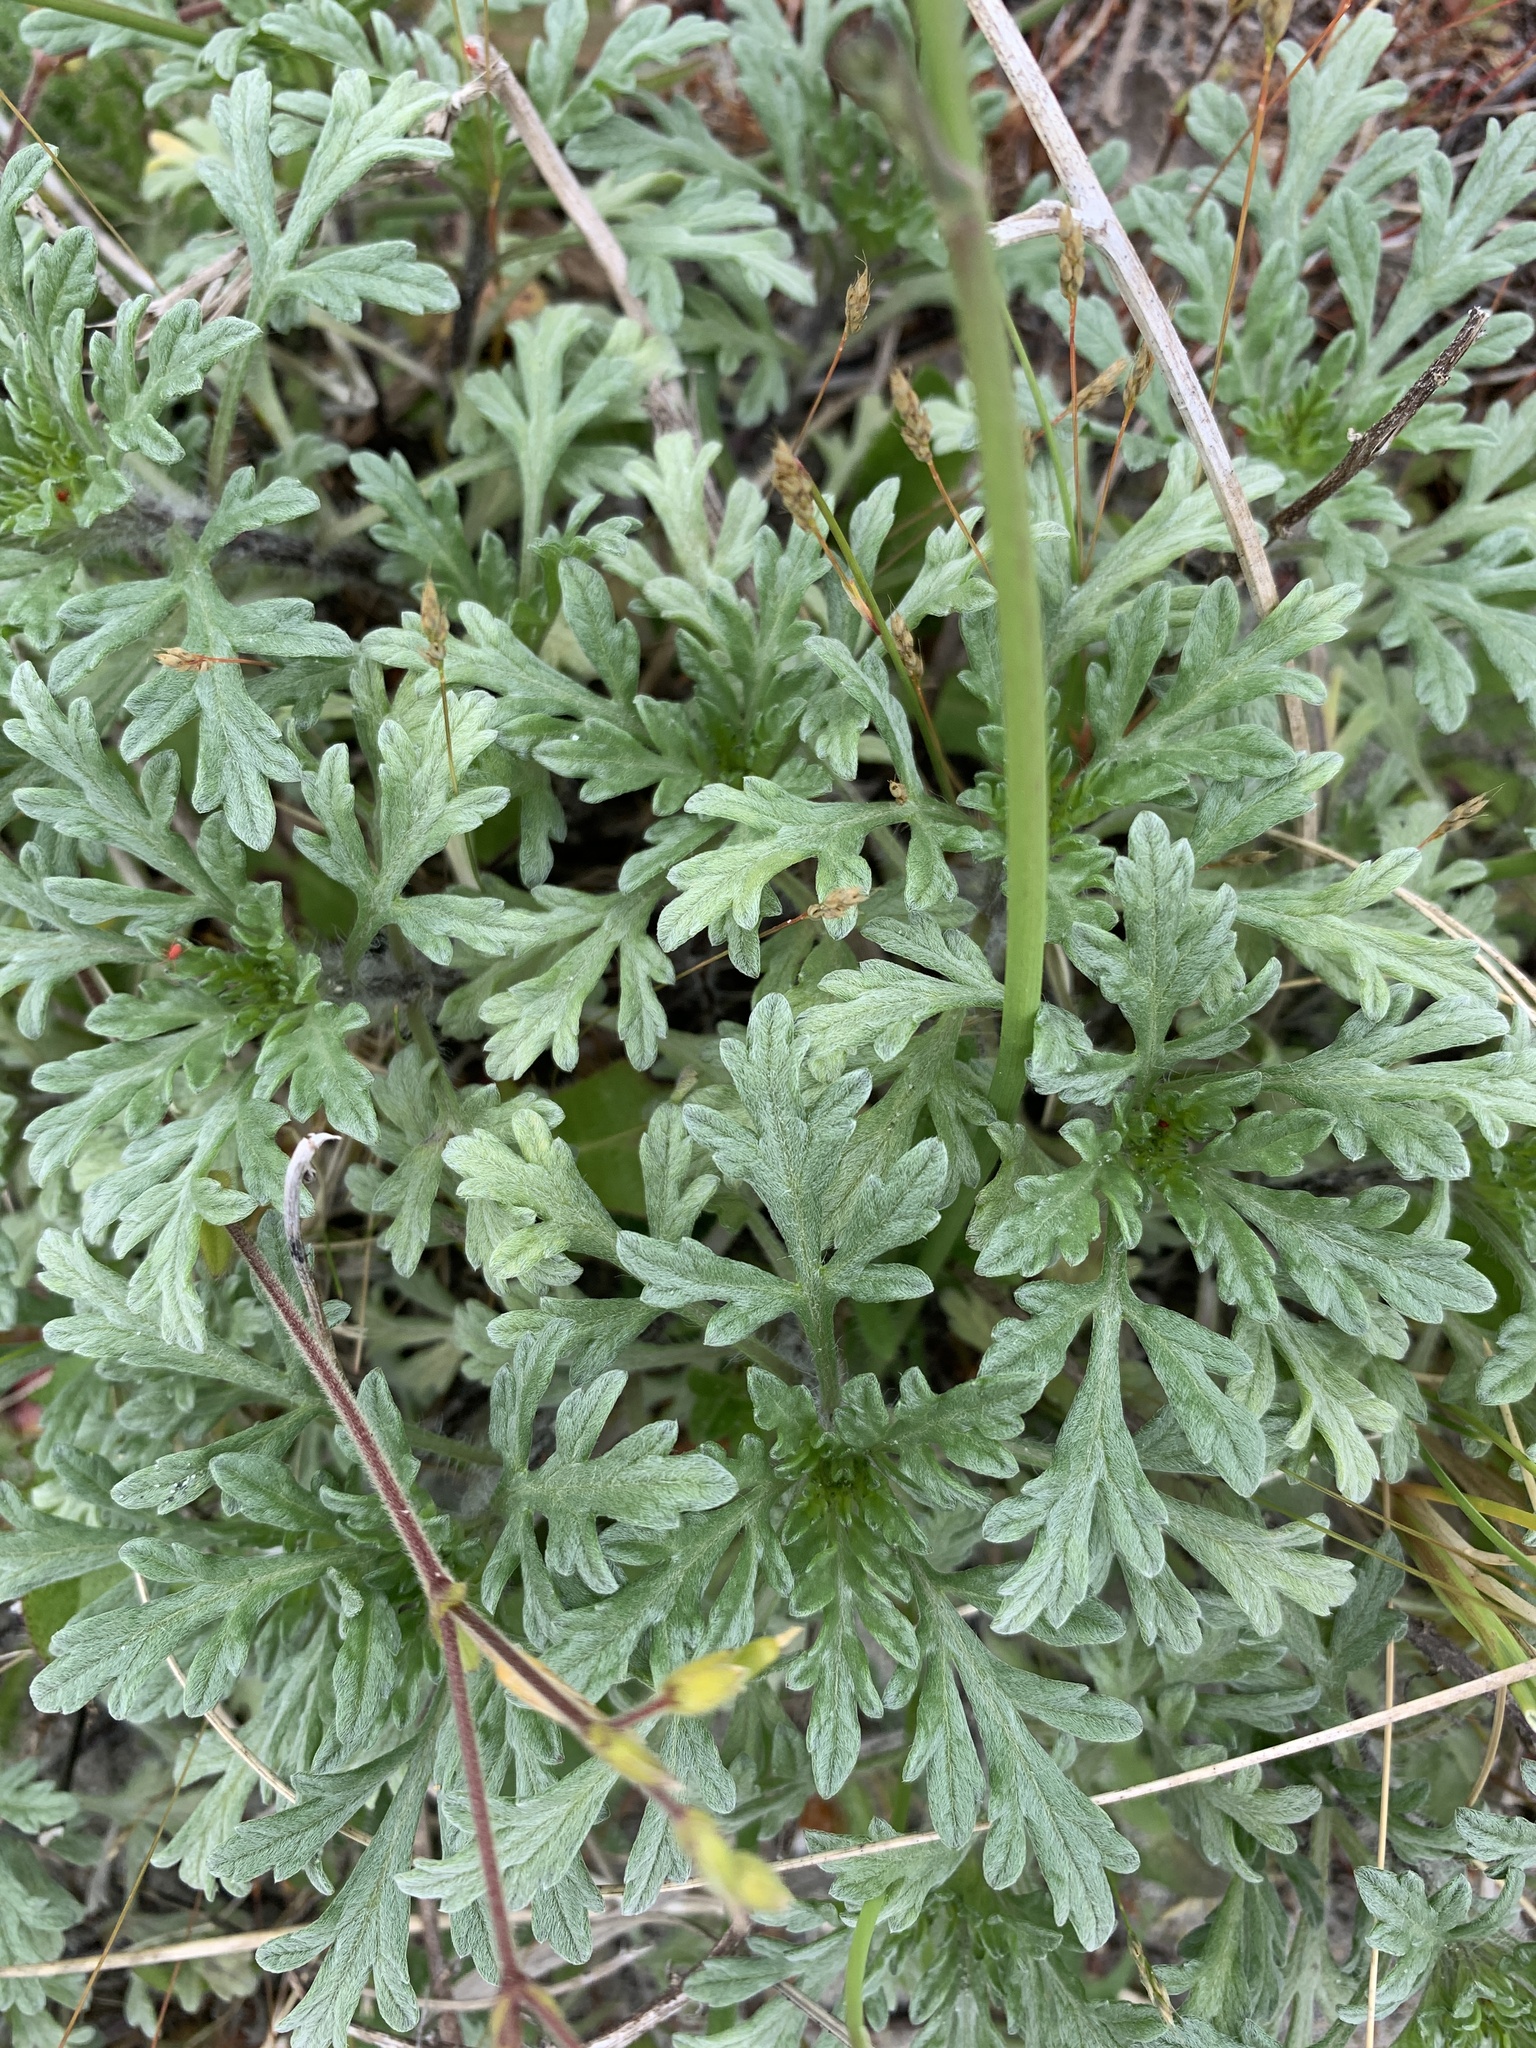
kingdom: Plantae
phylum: Tracheophyta
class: Magnoliopsida
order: Asterales
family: Asteraceae
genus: Ambrosia
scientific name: Ambrosia chamissonis
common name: Beachbur
